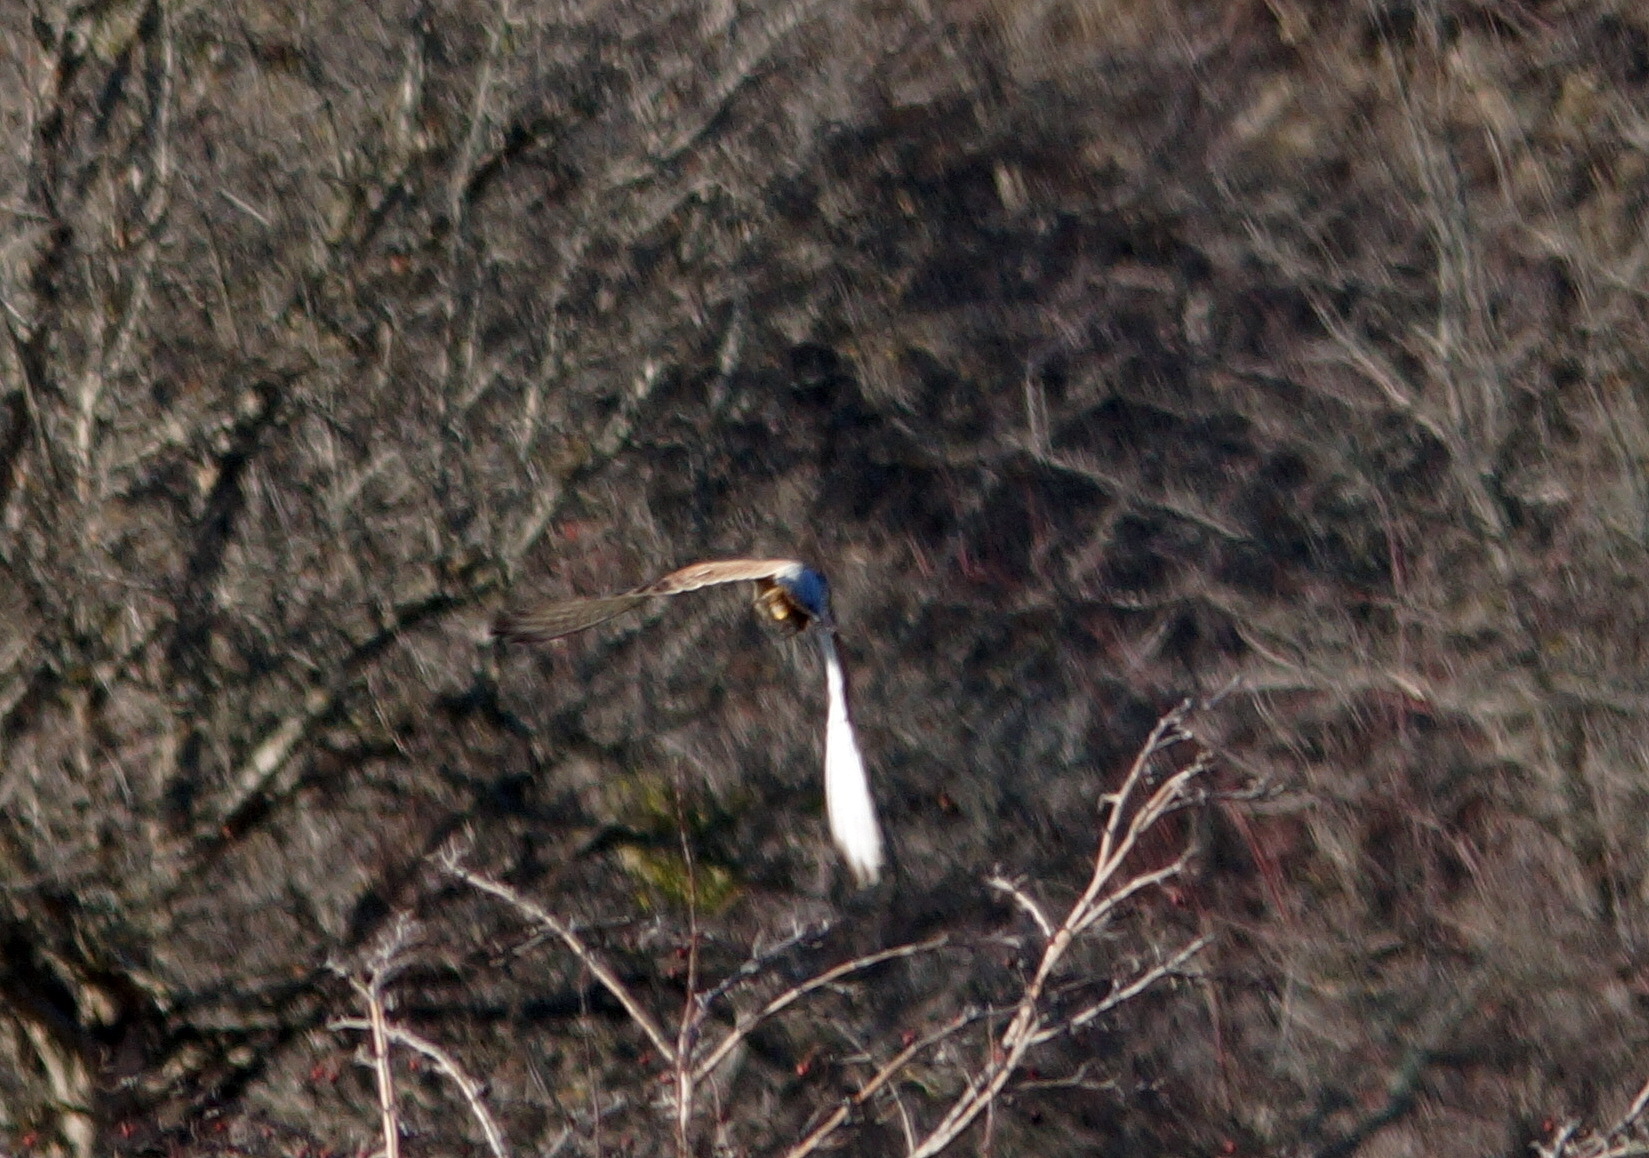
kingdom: Animalia
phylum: Chordata
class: Aves
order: Falconiformes
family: Falconidae
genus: Falco
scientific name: Falco tinnunculus
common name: Common kestrel
